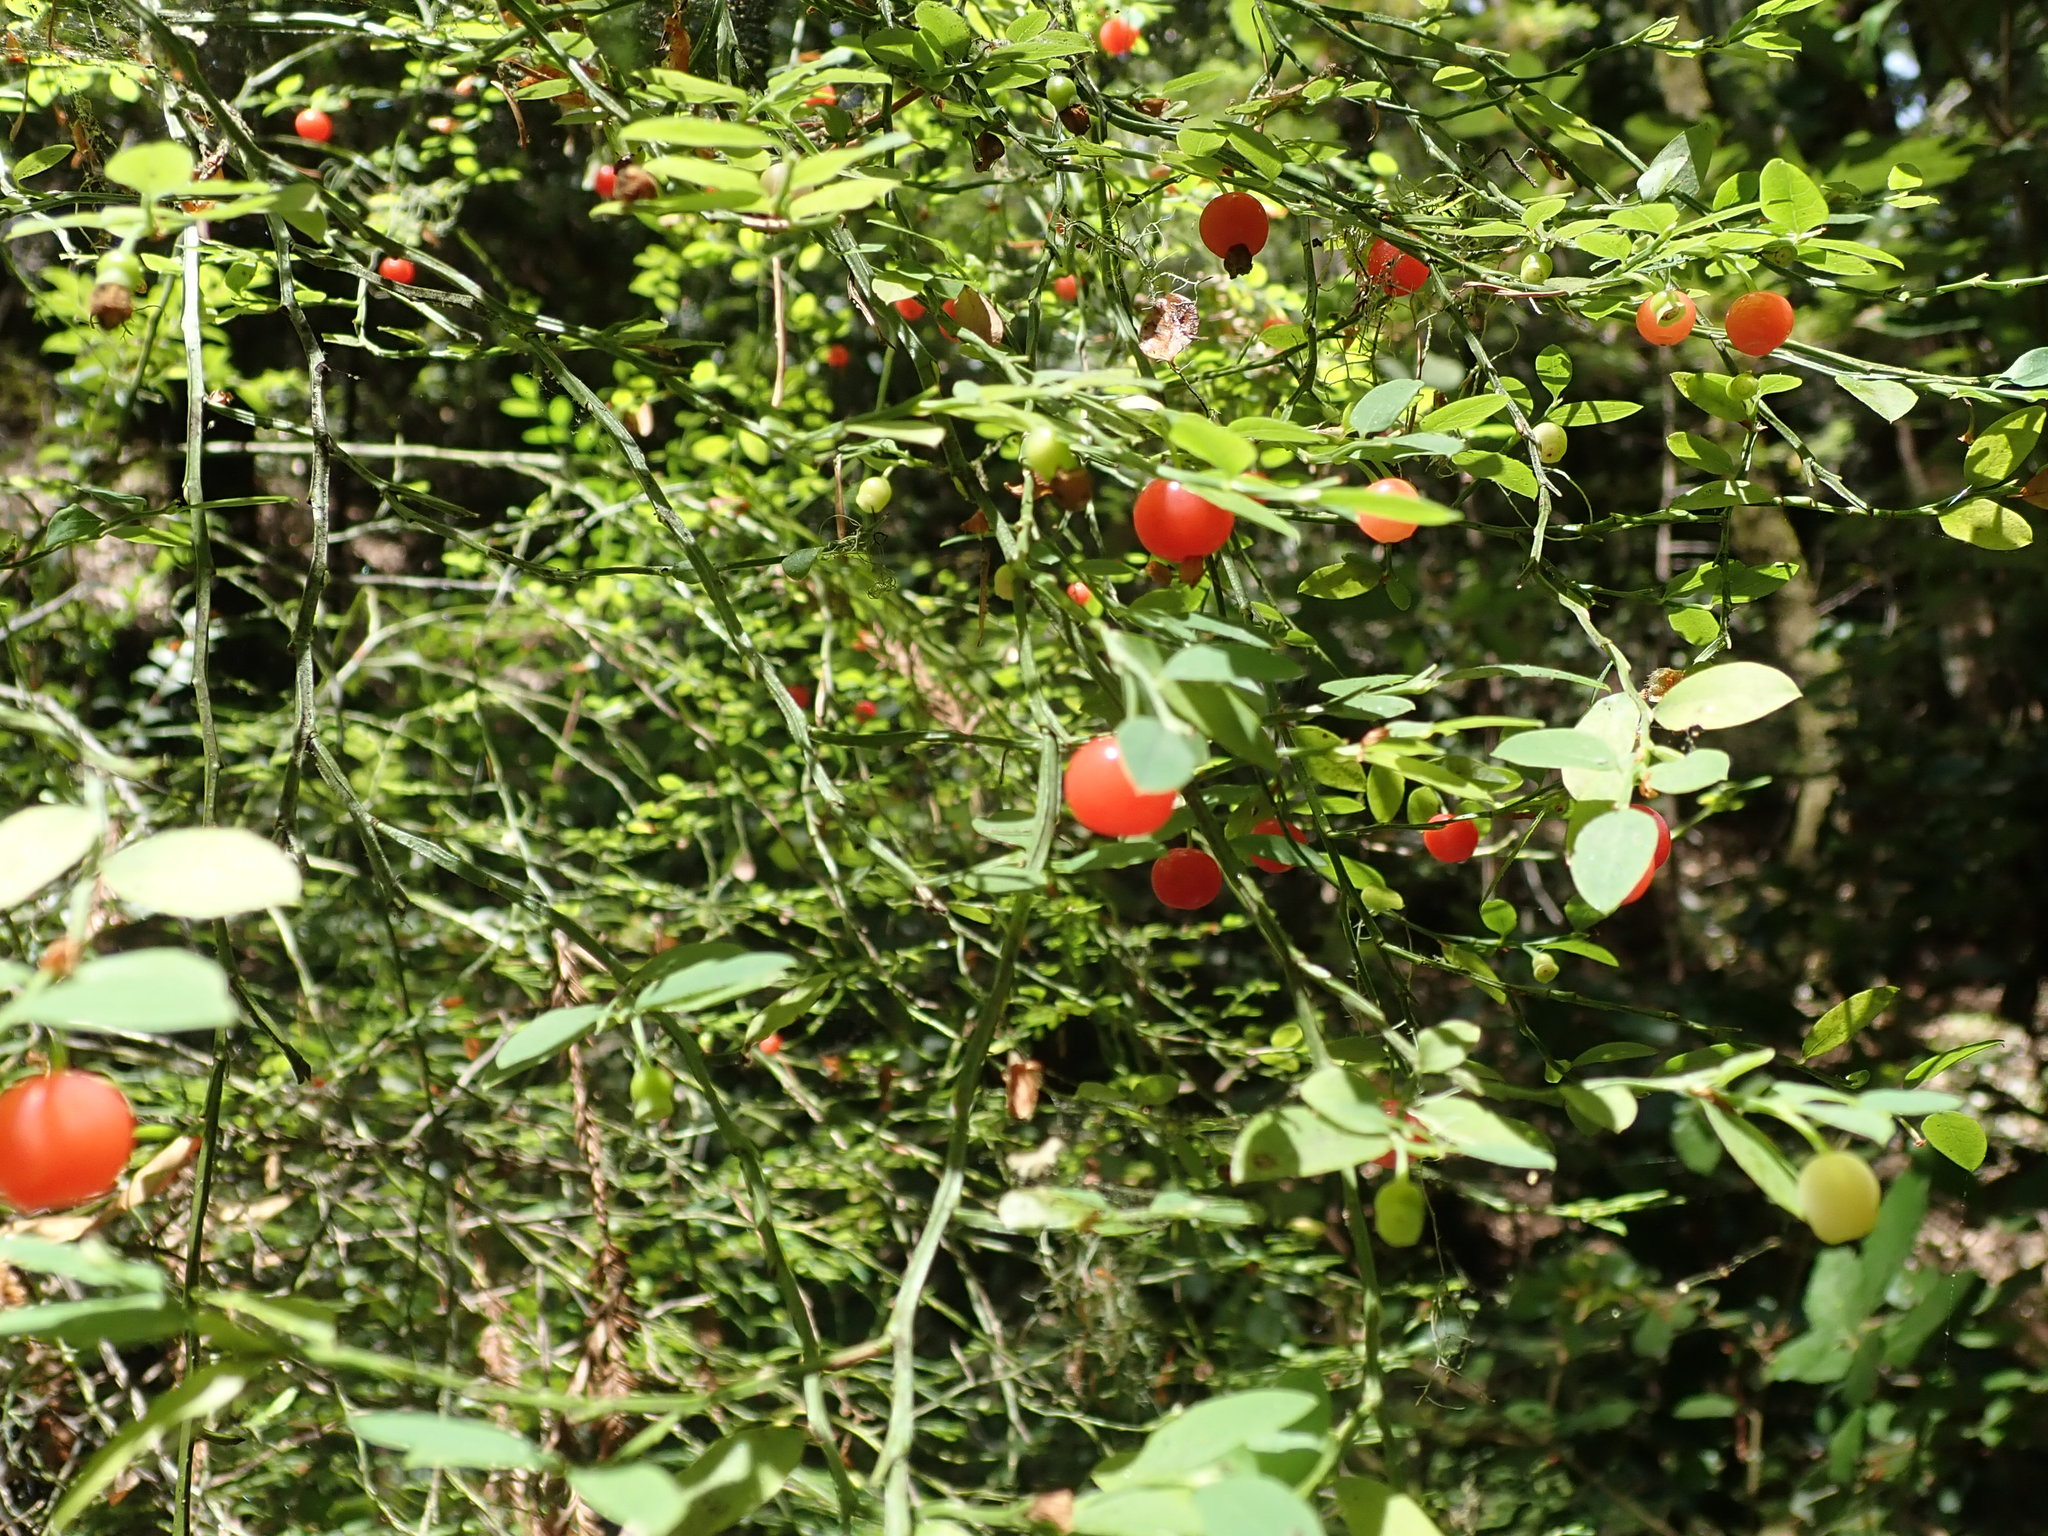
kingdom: Plantae
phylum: Tracheophyta
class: Magnoliopsida
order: Ericales
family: Ericaceae
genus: Vaccinium
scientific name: Vaccinium parvifolium
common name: Red-huckleberry
